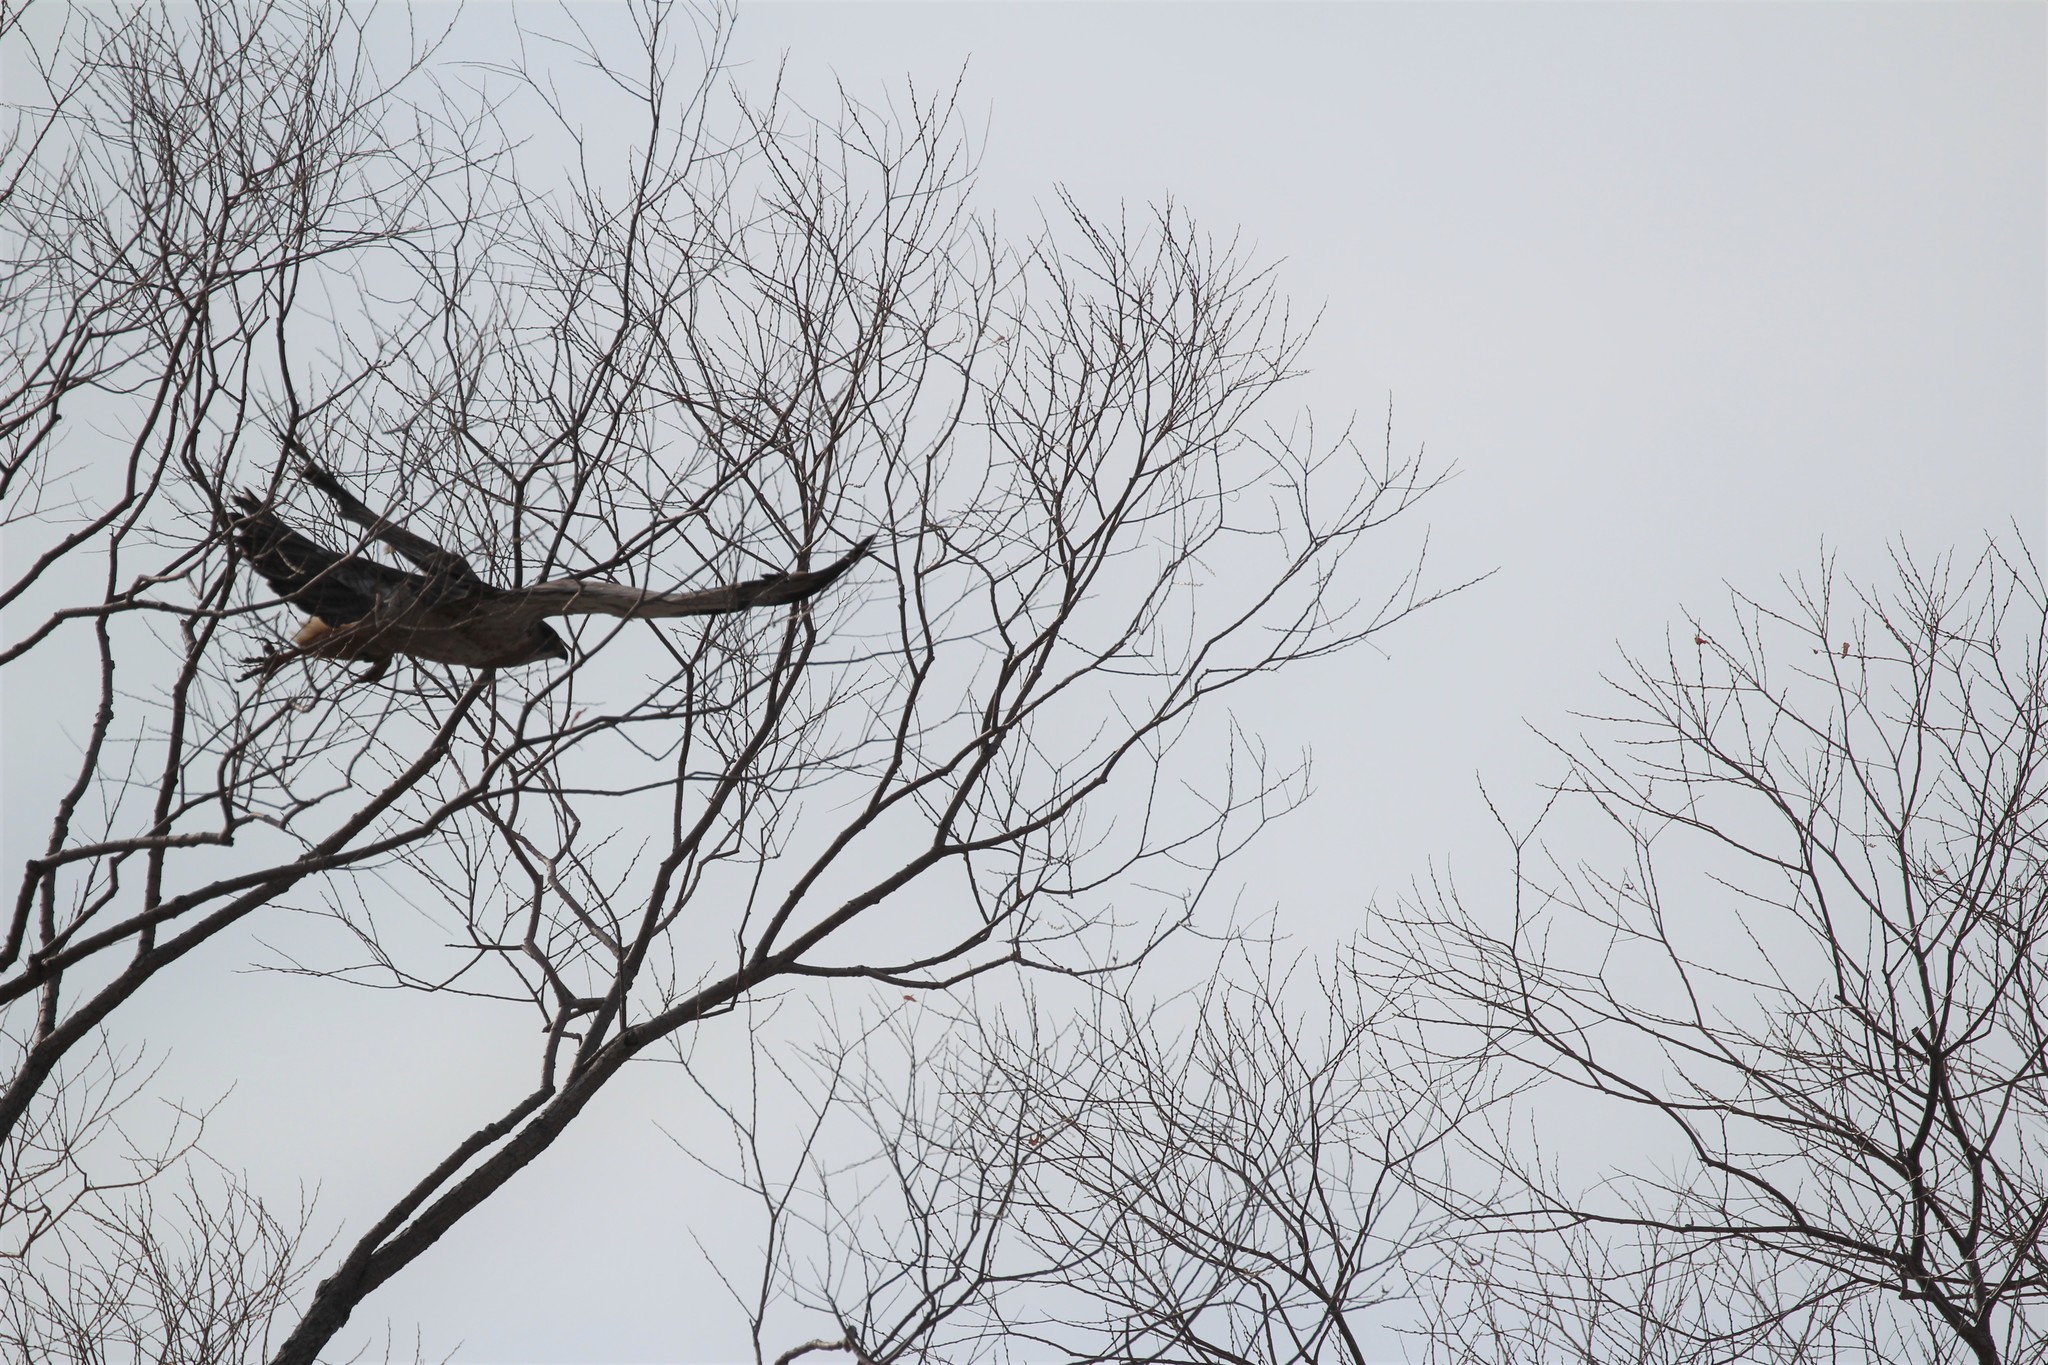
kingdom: Animalia
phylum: Chordata
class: Aves
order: Accipitriformes
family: Accipitridae
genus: Buteo
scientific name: Buteo swainsoni
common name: Swainson's hawk
